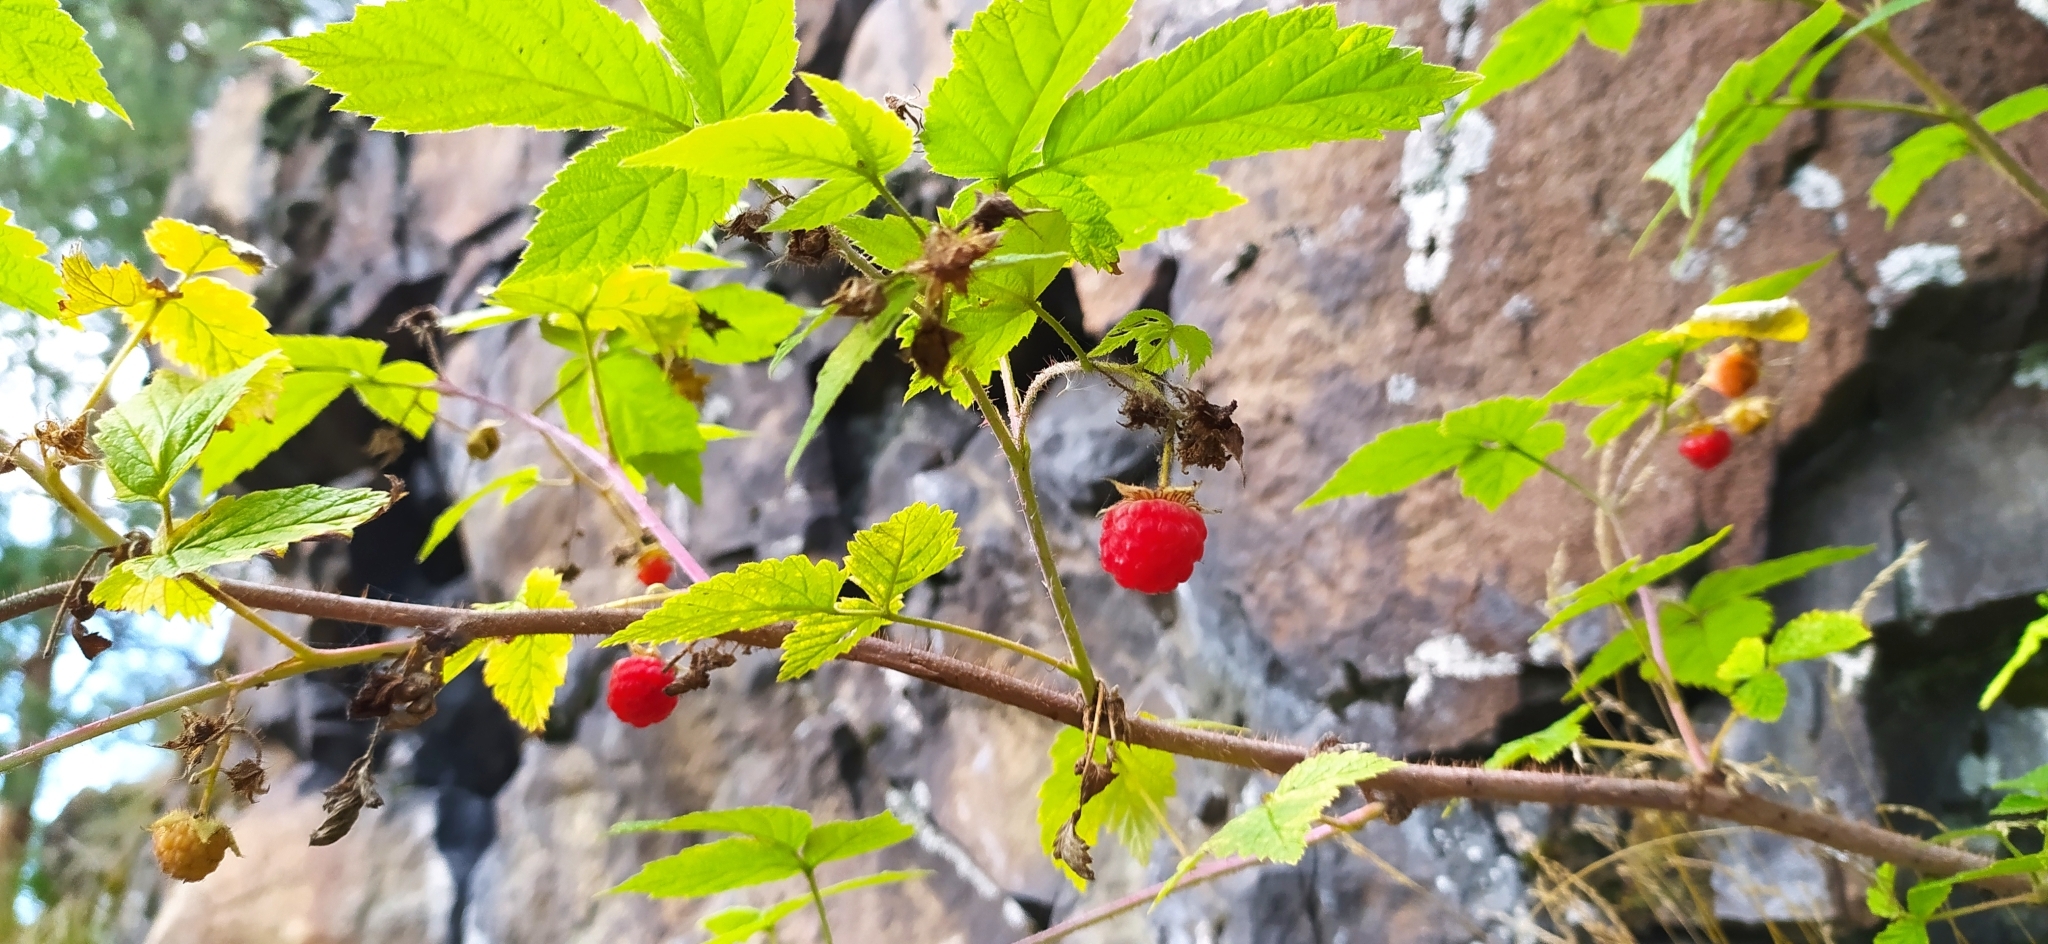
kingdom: Plantae
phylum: Tracheophyta
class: Magnoliopsida
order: Rosales
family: Rosaceae
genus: Rubus
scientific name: Rubus idaeus
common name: Raspberry
